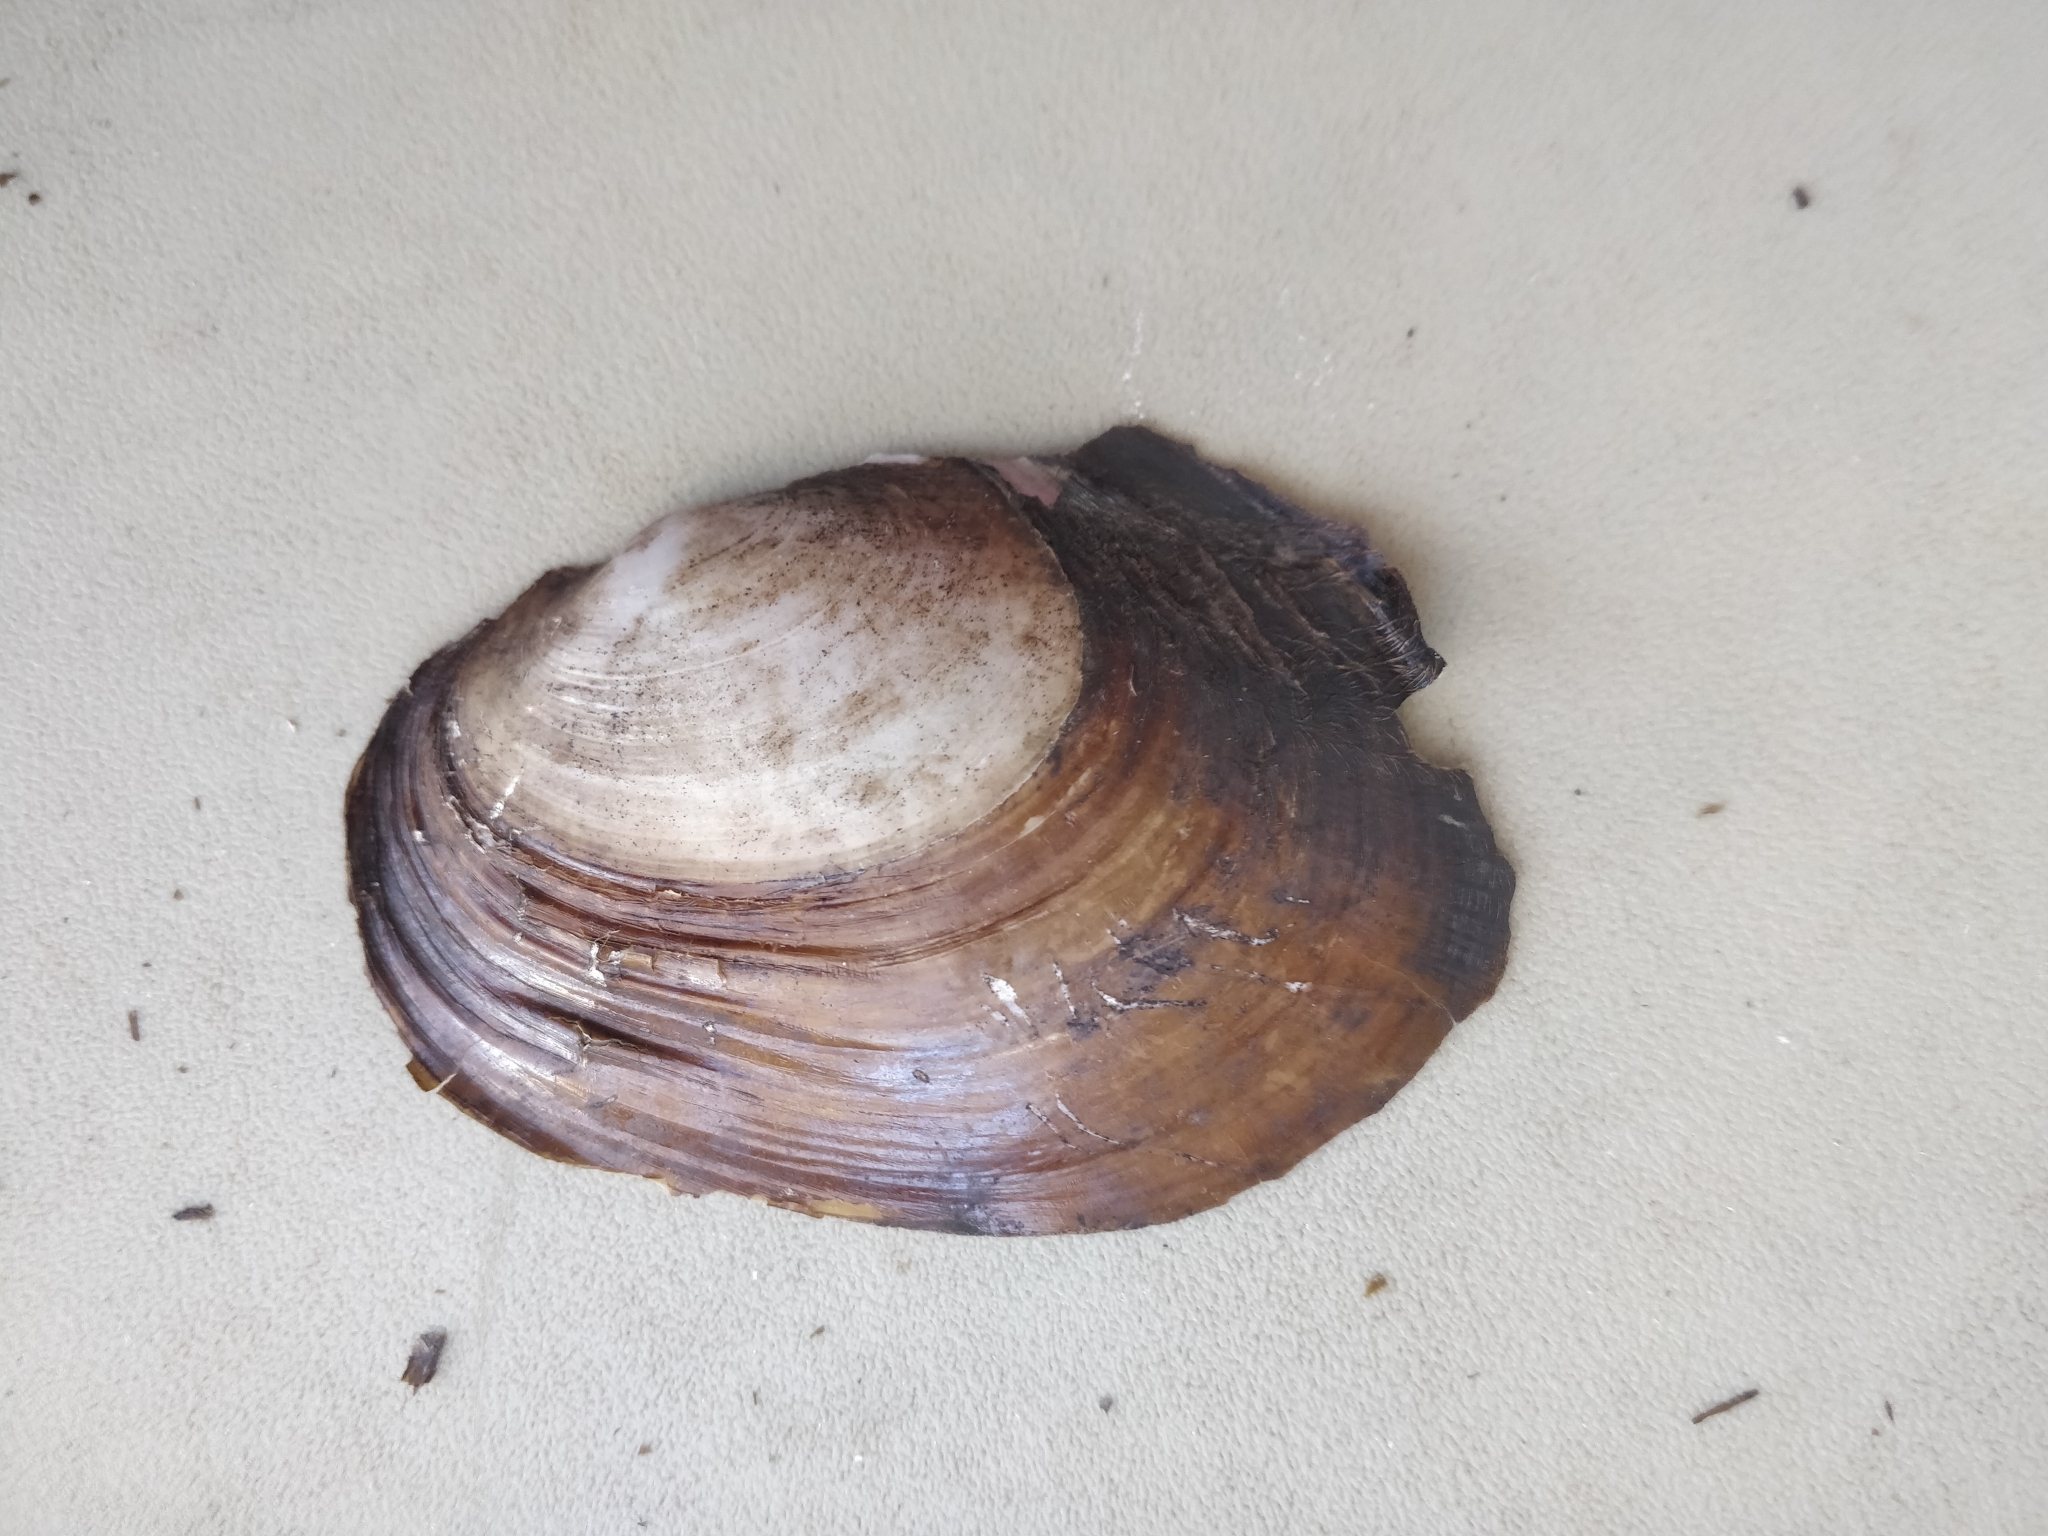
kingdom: Animalia
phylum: Mollusca
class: Bivalvia
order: Unionida
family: Unionidae
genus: Potamilus
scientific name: Potamilus ohiensis
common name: Pink papershell
